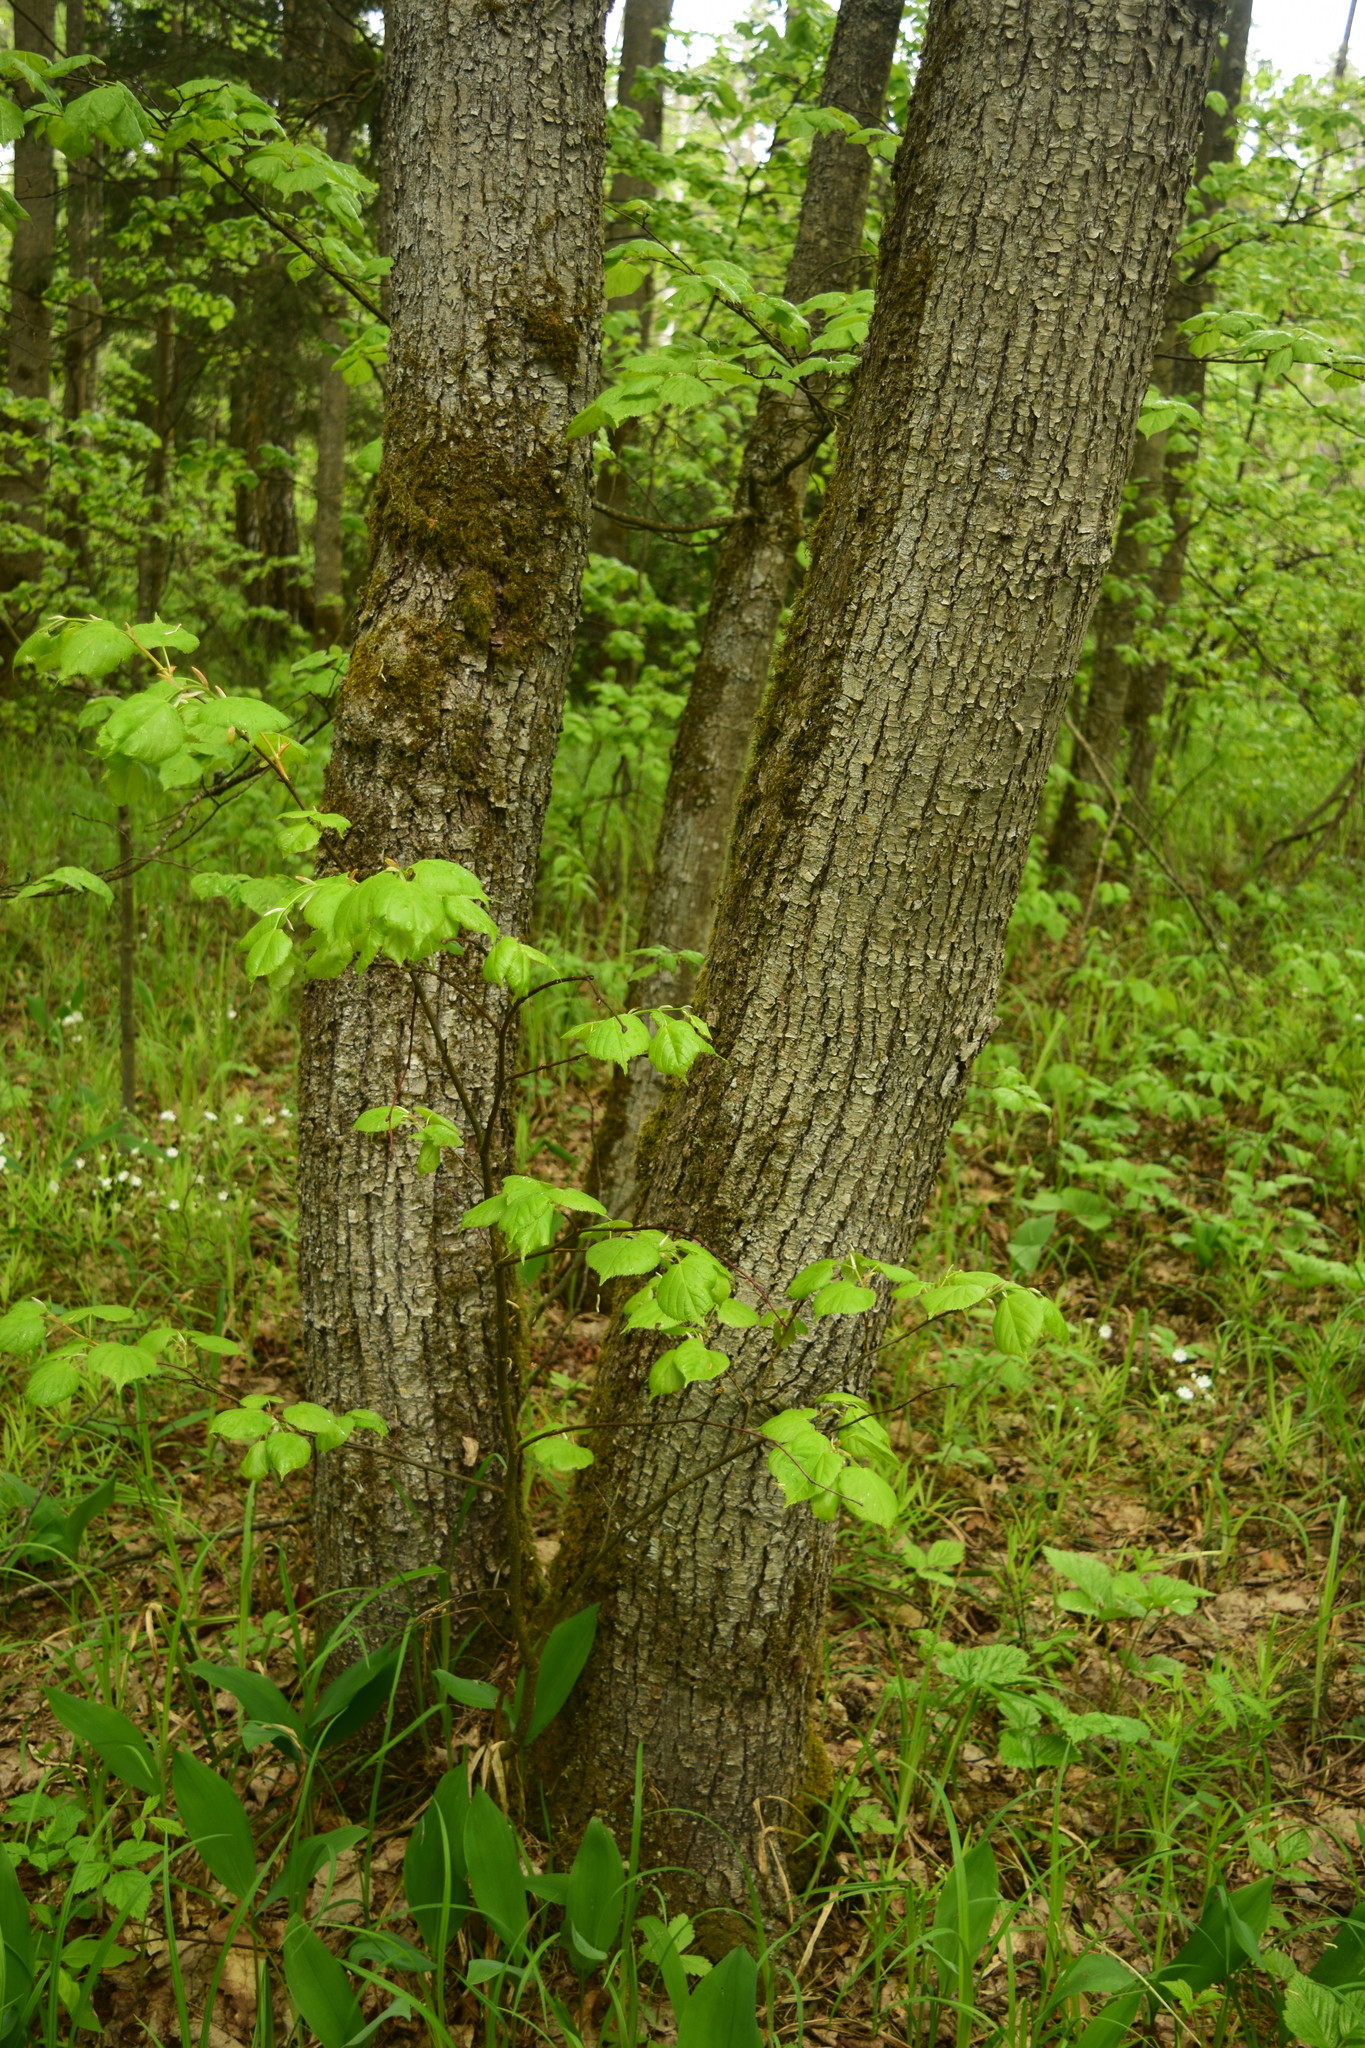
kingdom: Plantae
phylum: Tracheophyta
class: Magnoliopsida
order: Malvales
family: Malvaceae
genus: Tilia
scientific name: Tilia cordata
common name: Small-leaved lime
